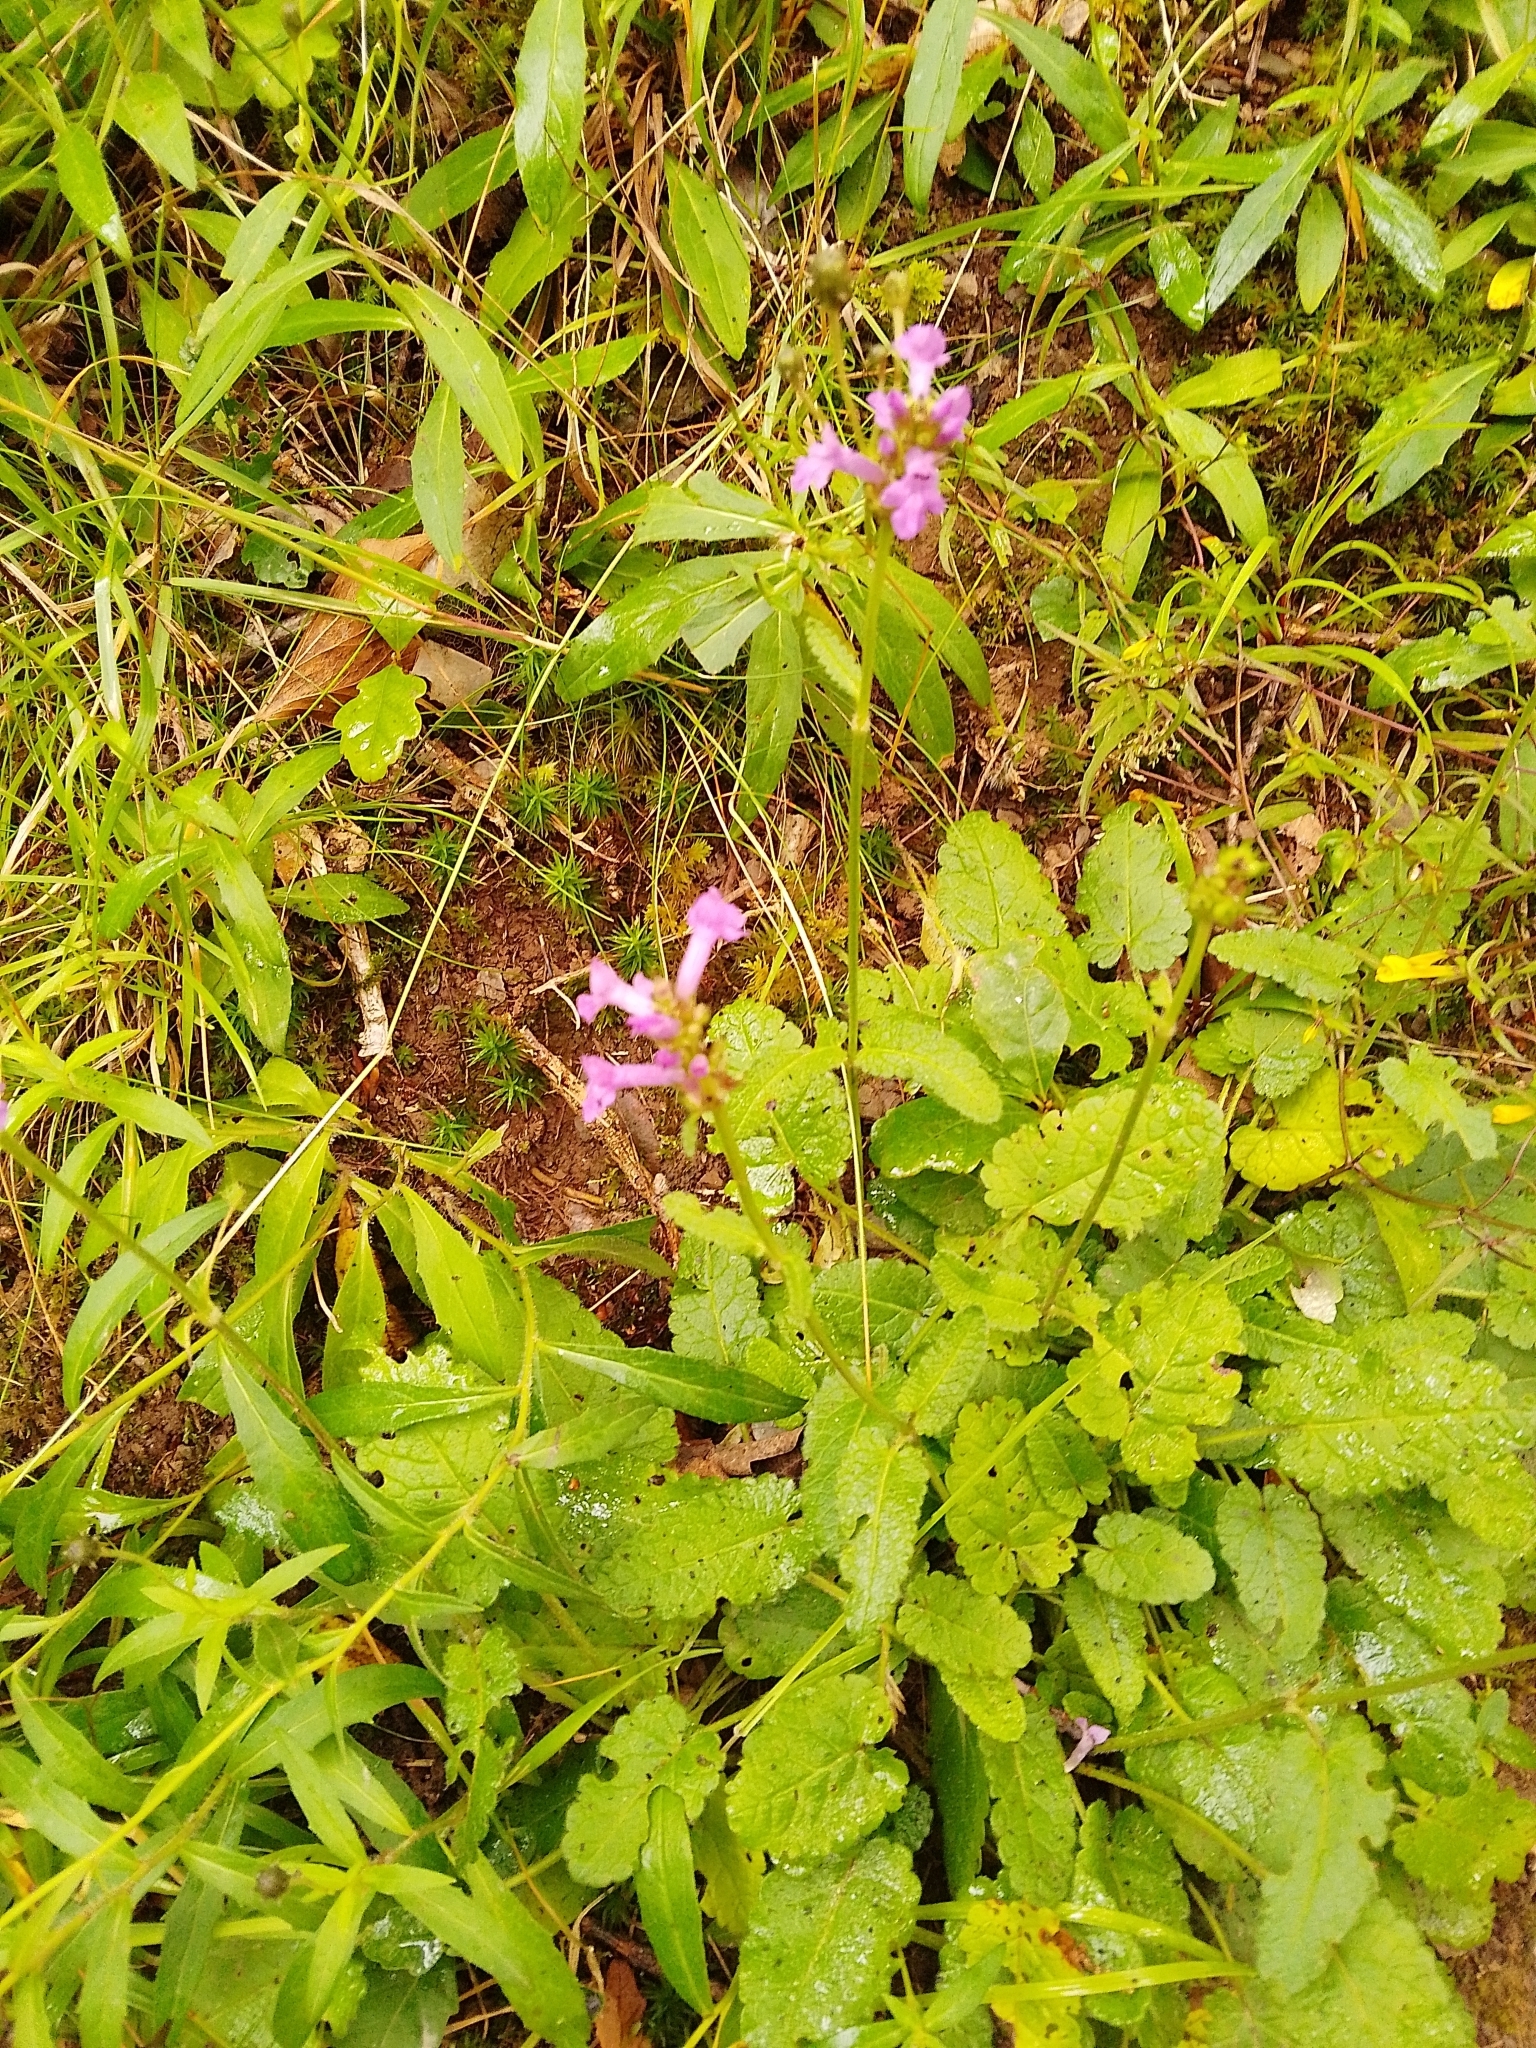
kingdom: Plantae
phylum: Tracheophyta
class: Magnoliopsida
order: Lamiales
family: Lamiaceae
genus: Betonica
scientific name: Betonica officinalis
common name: Bishop's-wort
